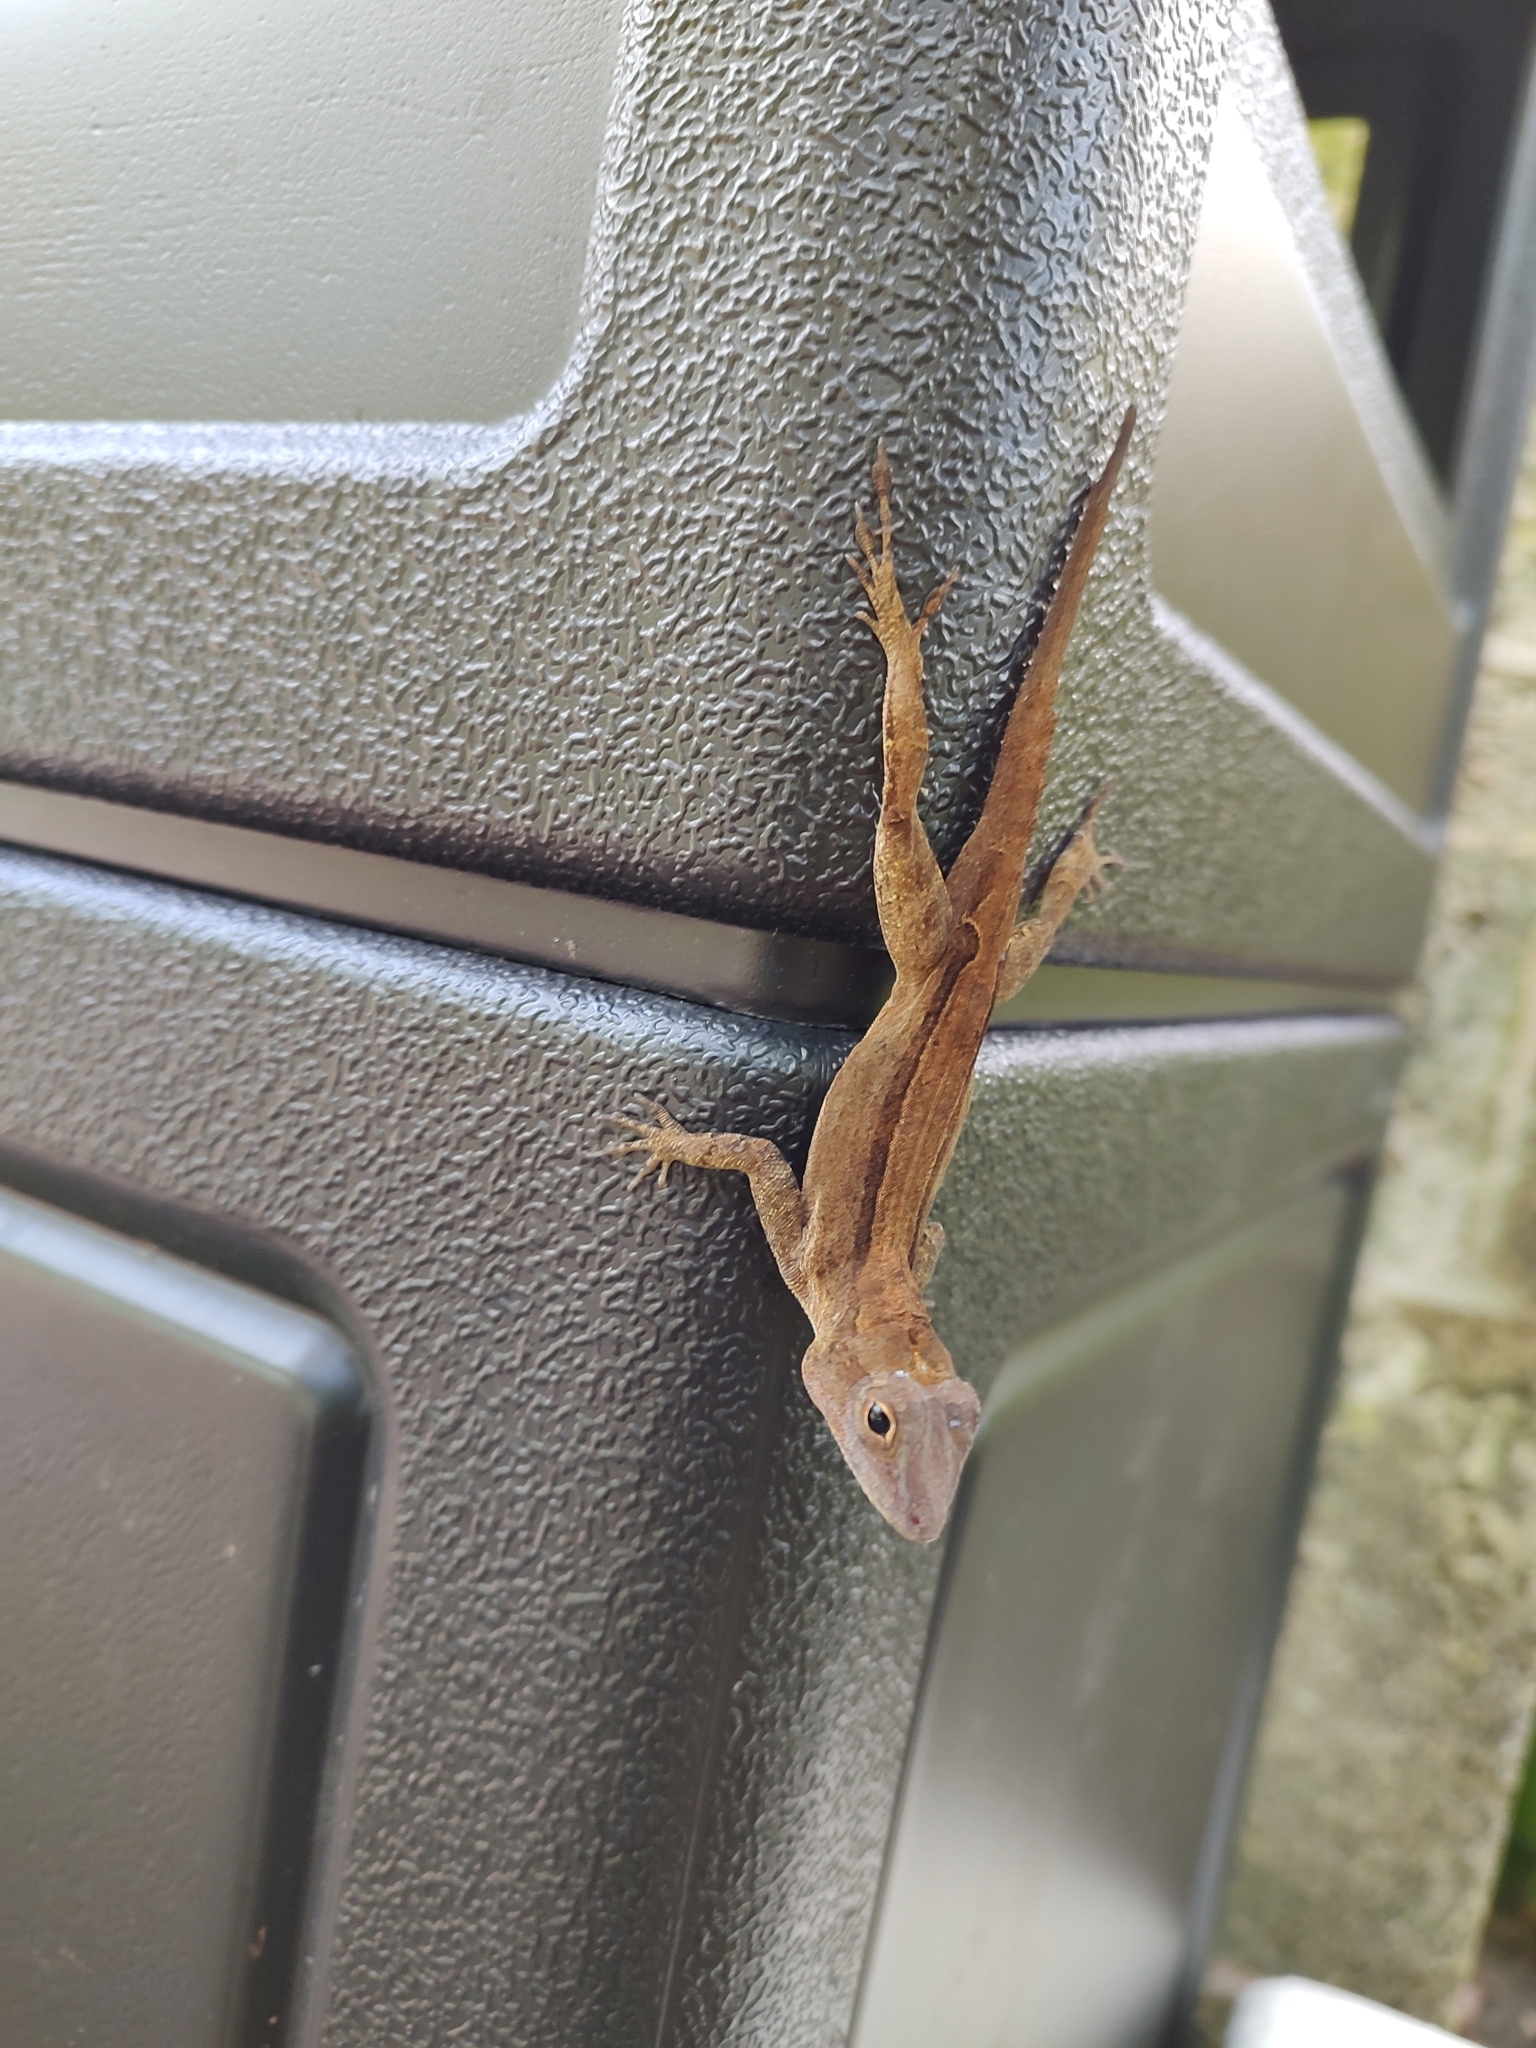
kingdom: Animalia
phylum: Chordata
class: Squamata
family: Dactyloidae
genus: Anolis
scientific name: Anolis cristatellus
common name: Crested anole
